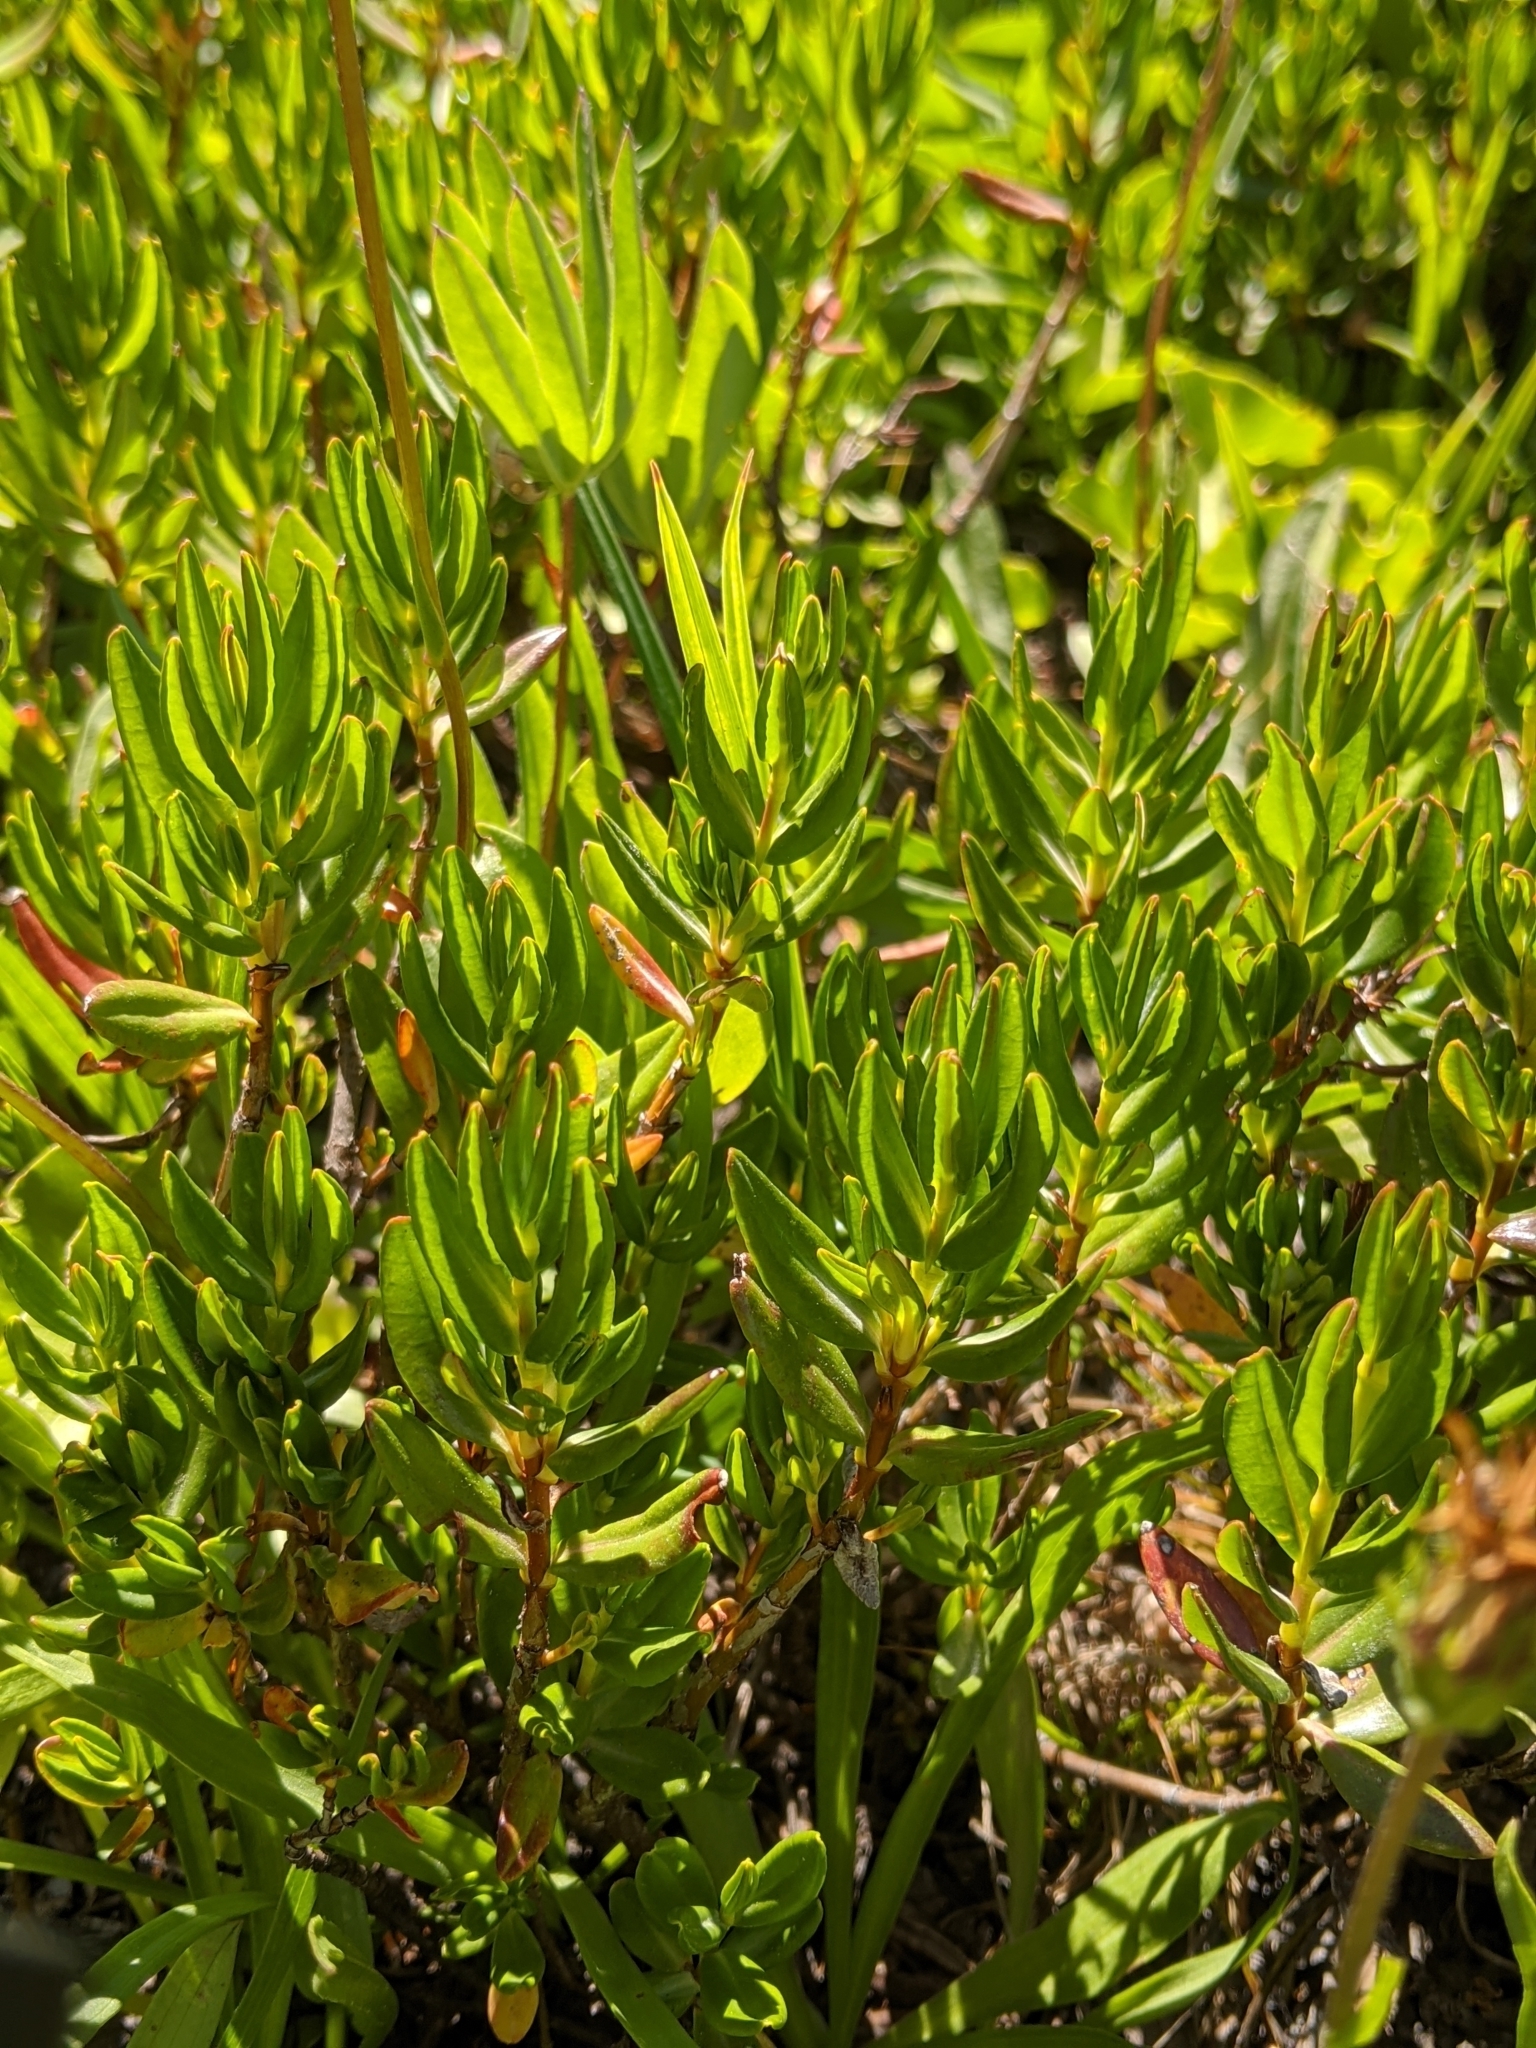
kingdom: Plantae
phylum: Tracheophyta
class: Magnoliopsida
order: Ericales
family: Ericaceae
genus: Kalmia
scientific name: Kalmia microphylla
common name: Alpine bog laurel
